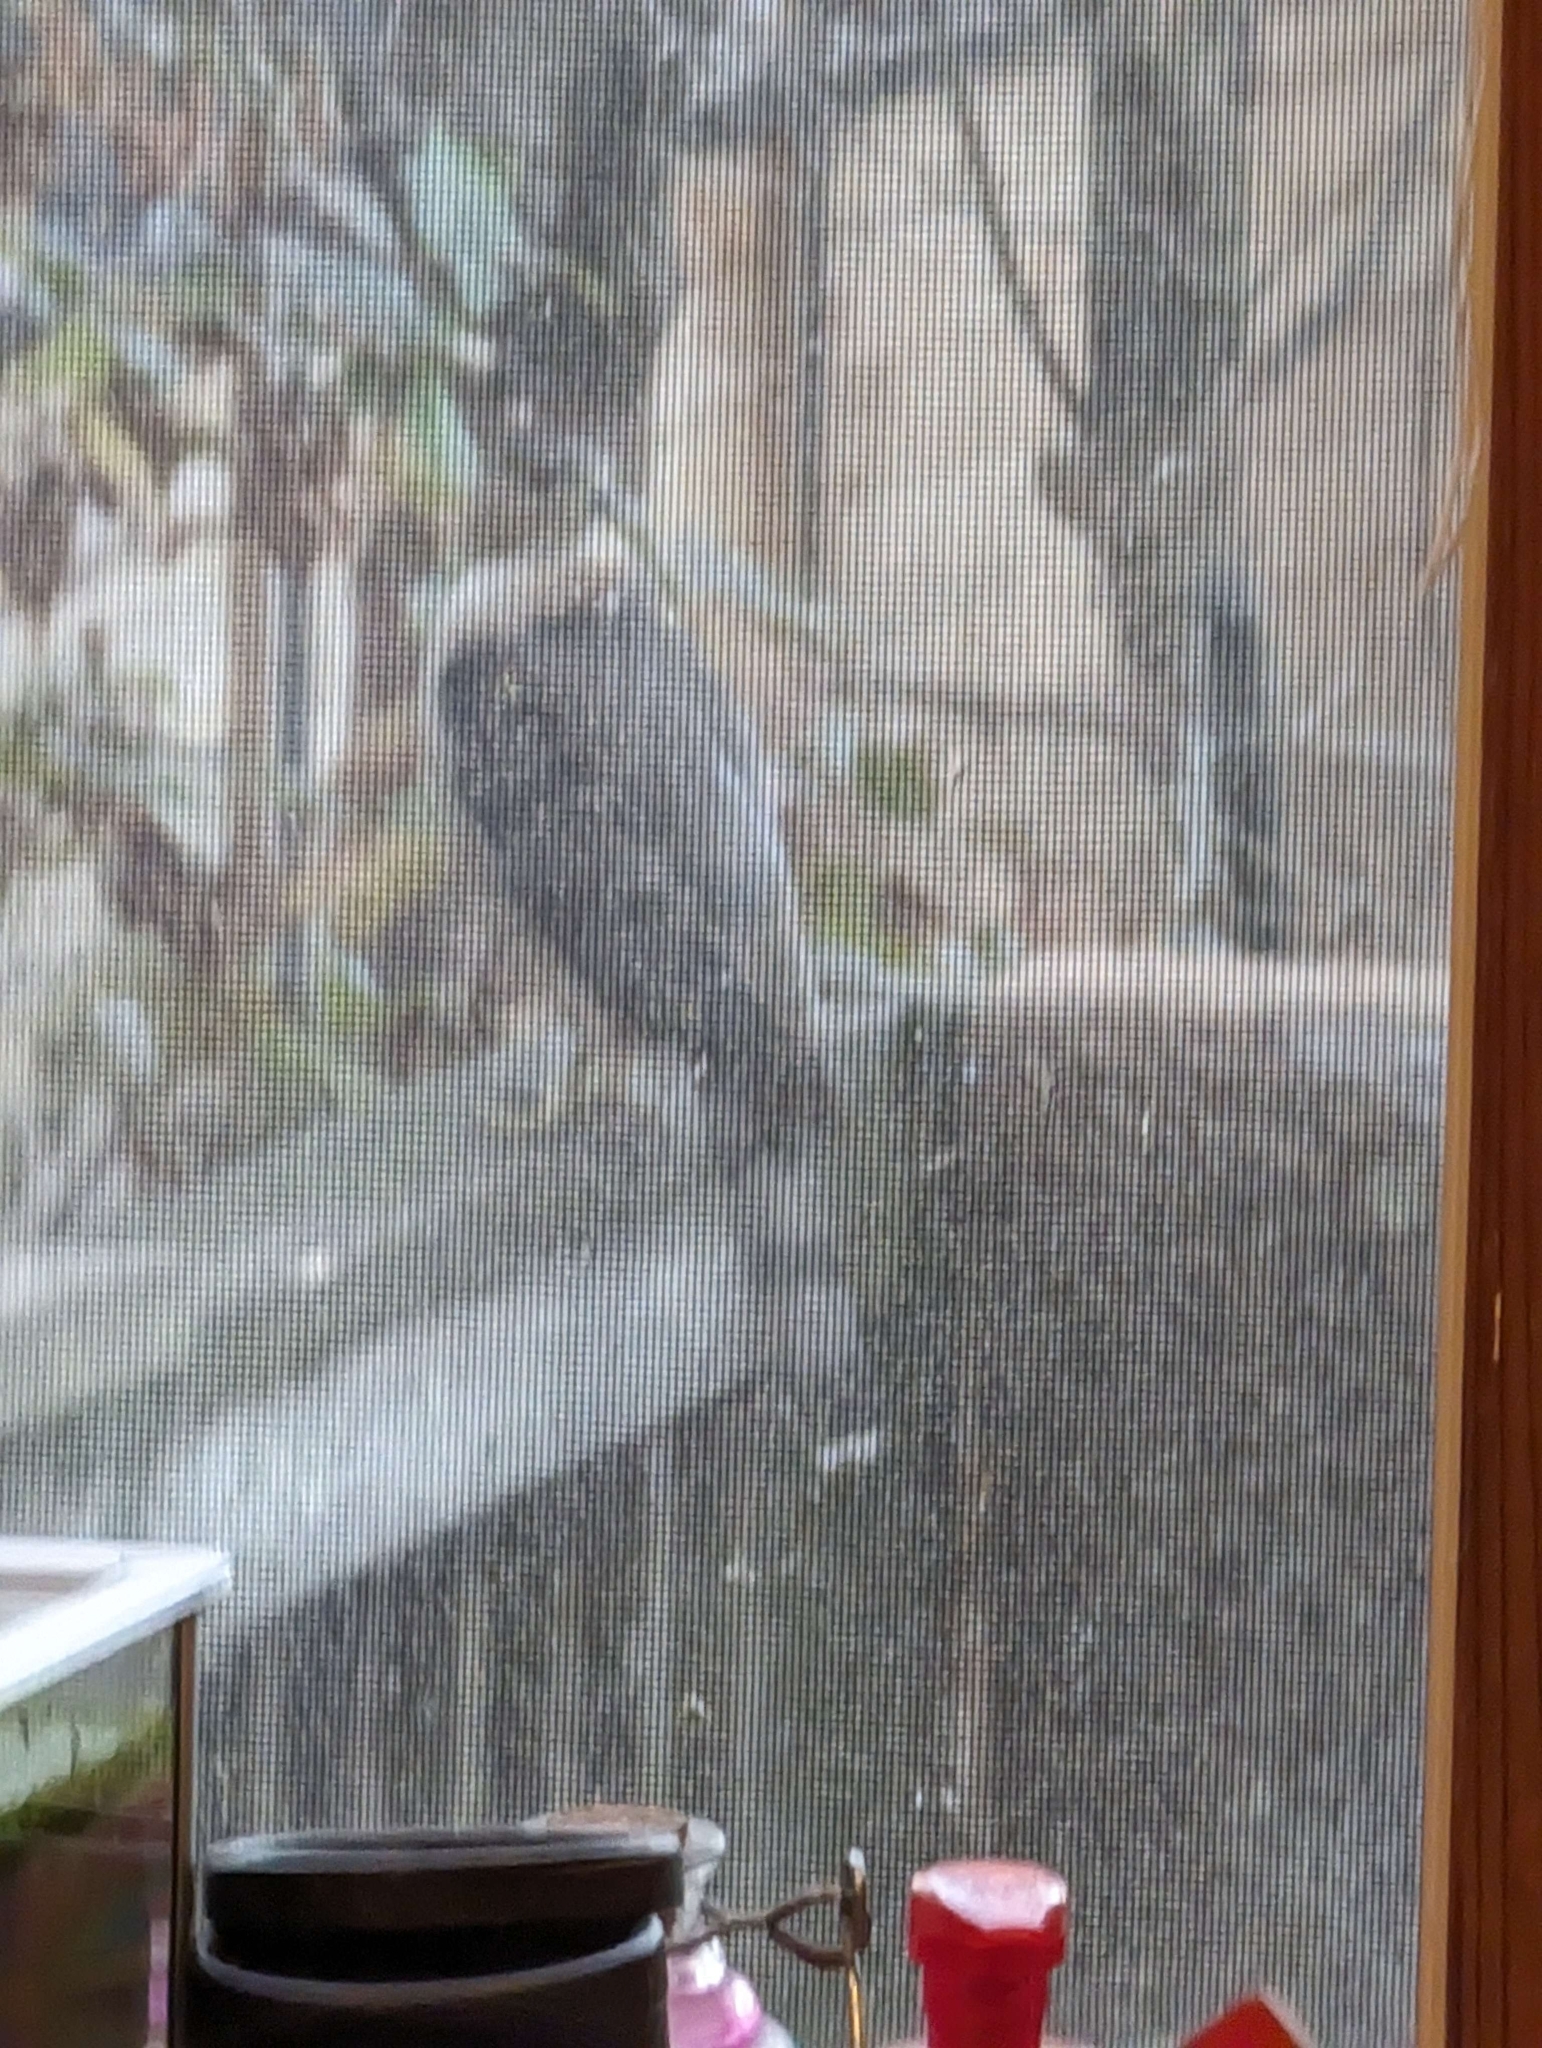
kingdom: Animalia
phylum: Chordata
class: Aves
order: Accipitriformes
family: Accipitridae
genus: Accipiter
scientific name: Accipiter cooperii
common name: Cooper's hawk
